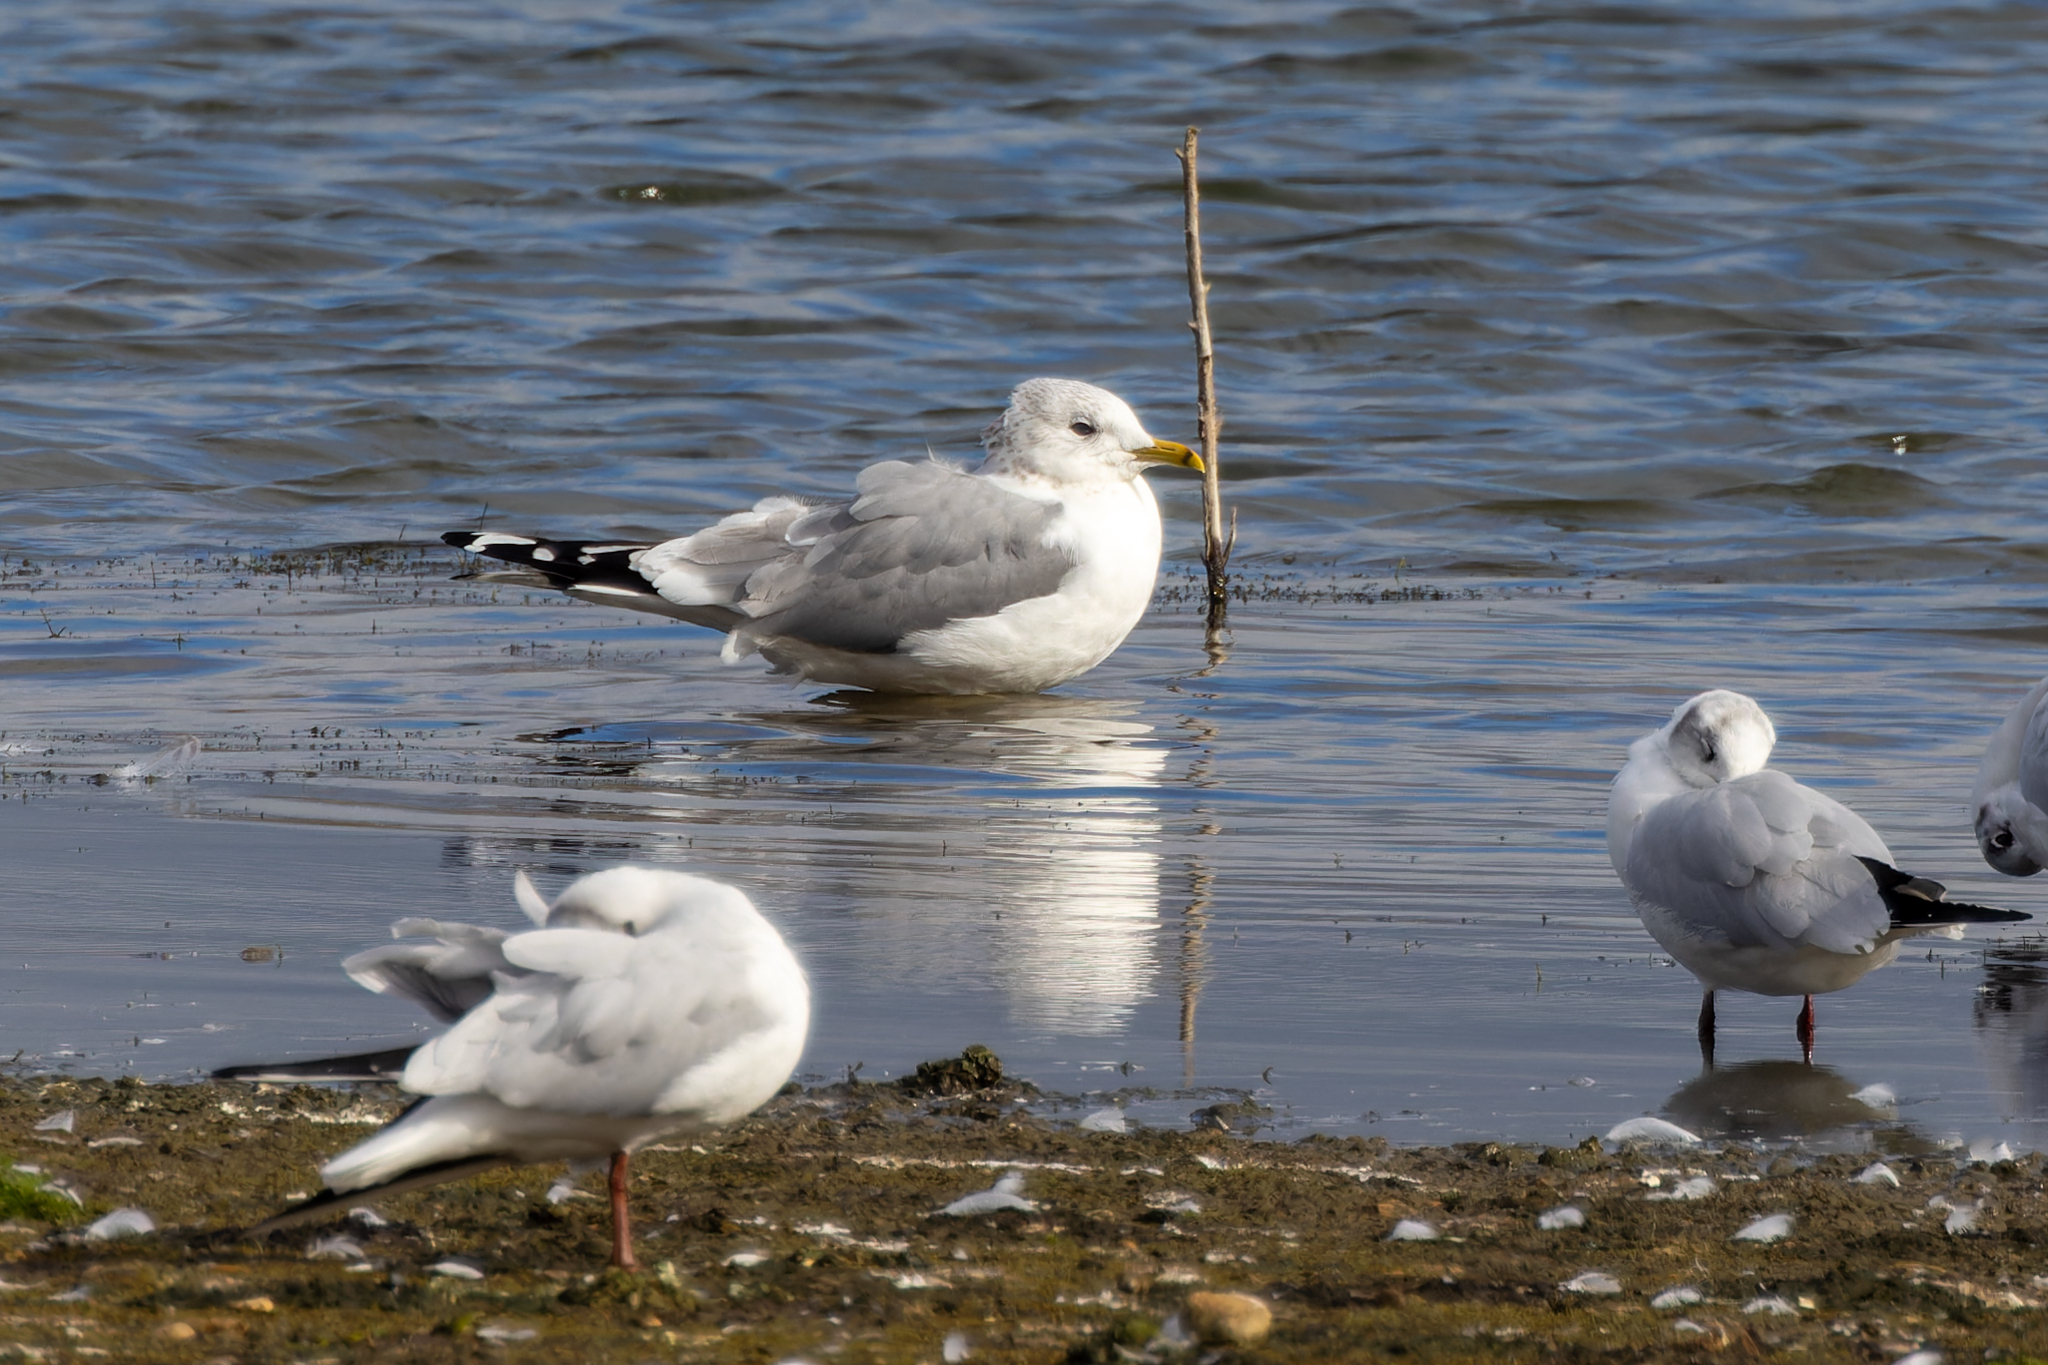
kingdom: Animalia
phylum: Chordata
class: Aves
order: Charadriiformes
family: Laridae
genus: Larus
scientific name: Larus canus
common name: Mew gull
